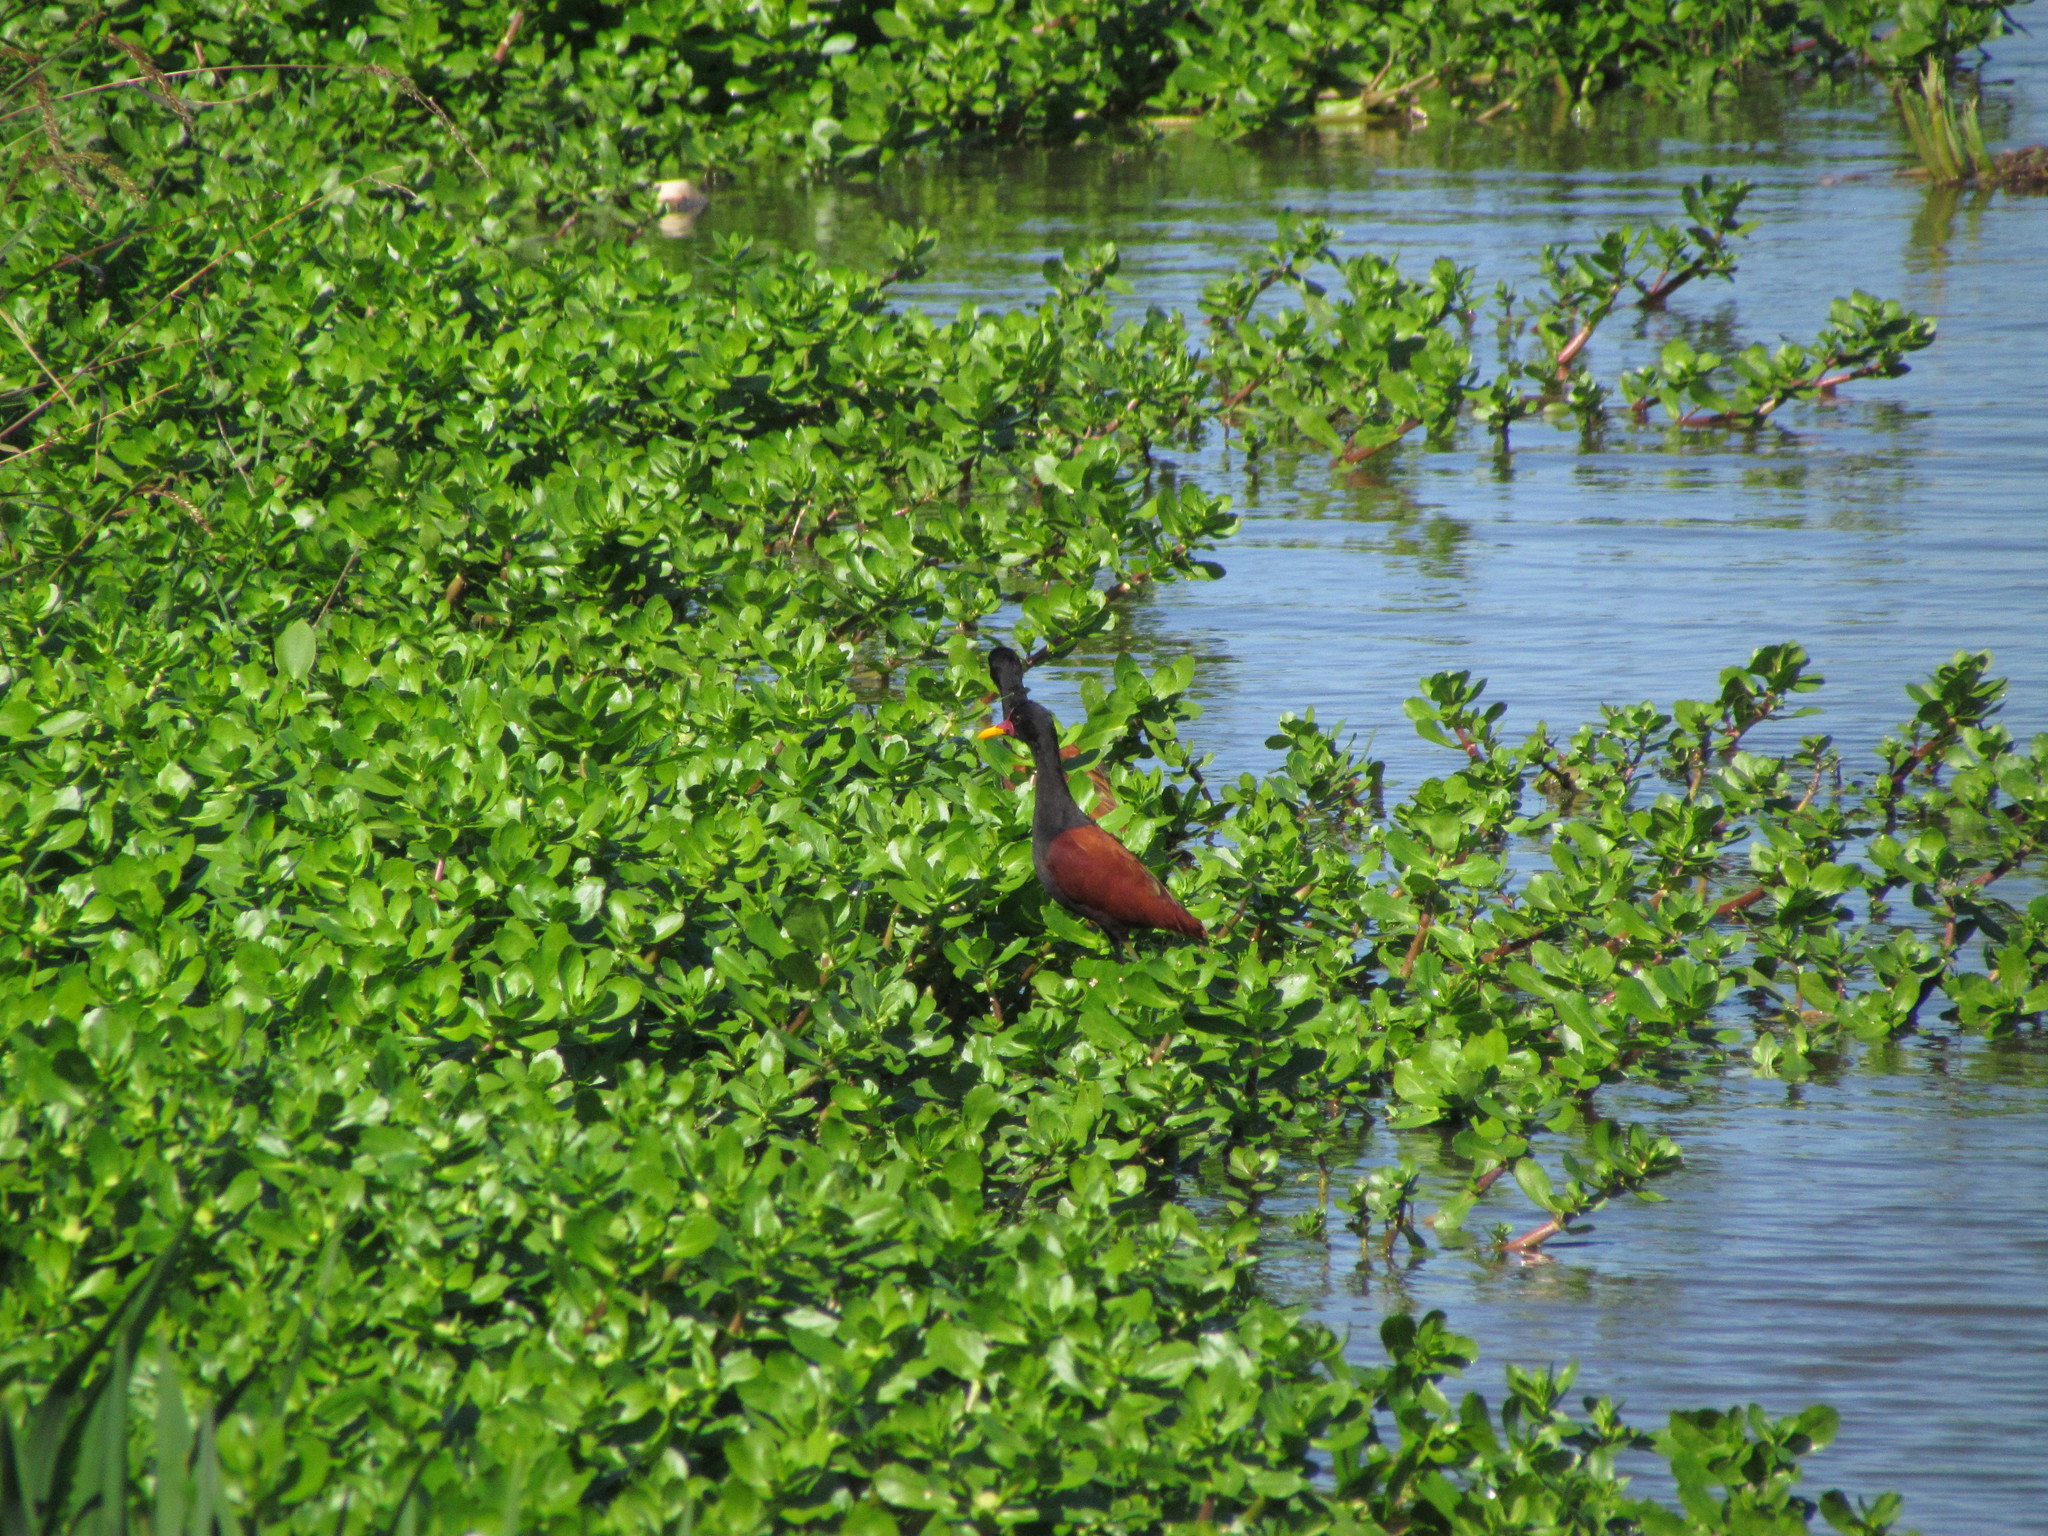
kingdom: Animalia
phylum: Chordata
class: Aves
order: Charadriiformes
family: Jacanidae
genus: Jacana
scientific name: Jacana jacana
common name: Wattled jacana
